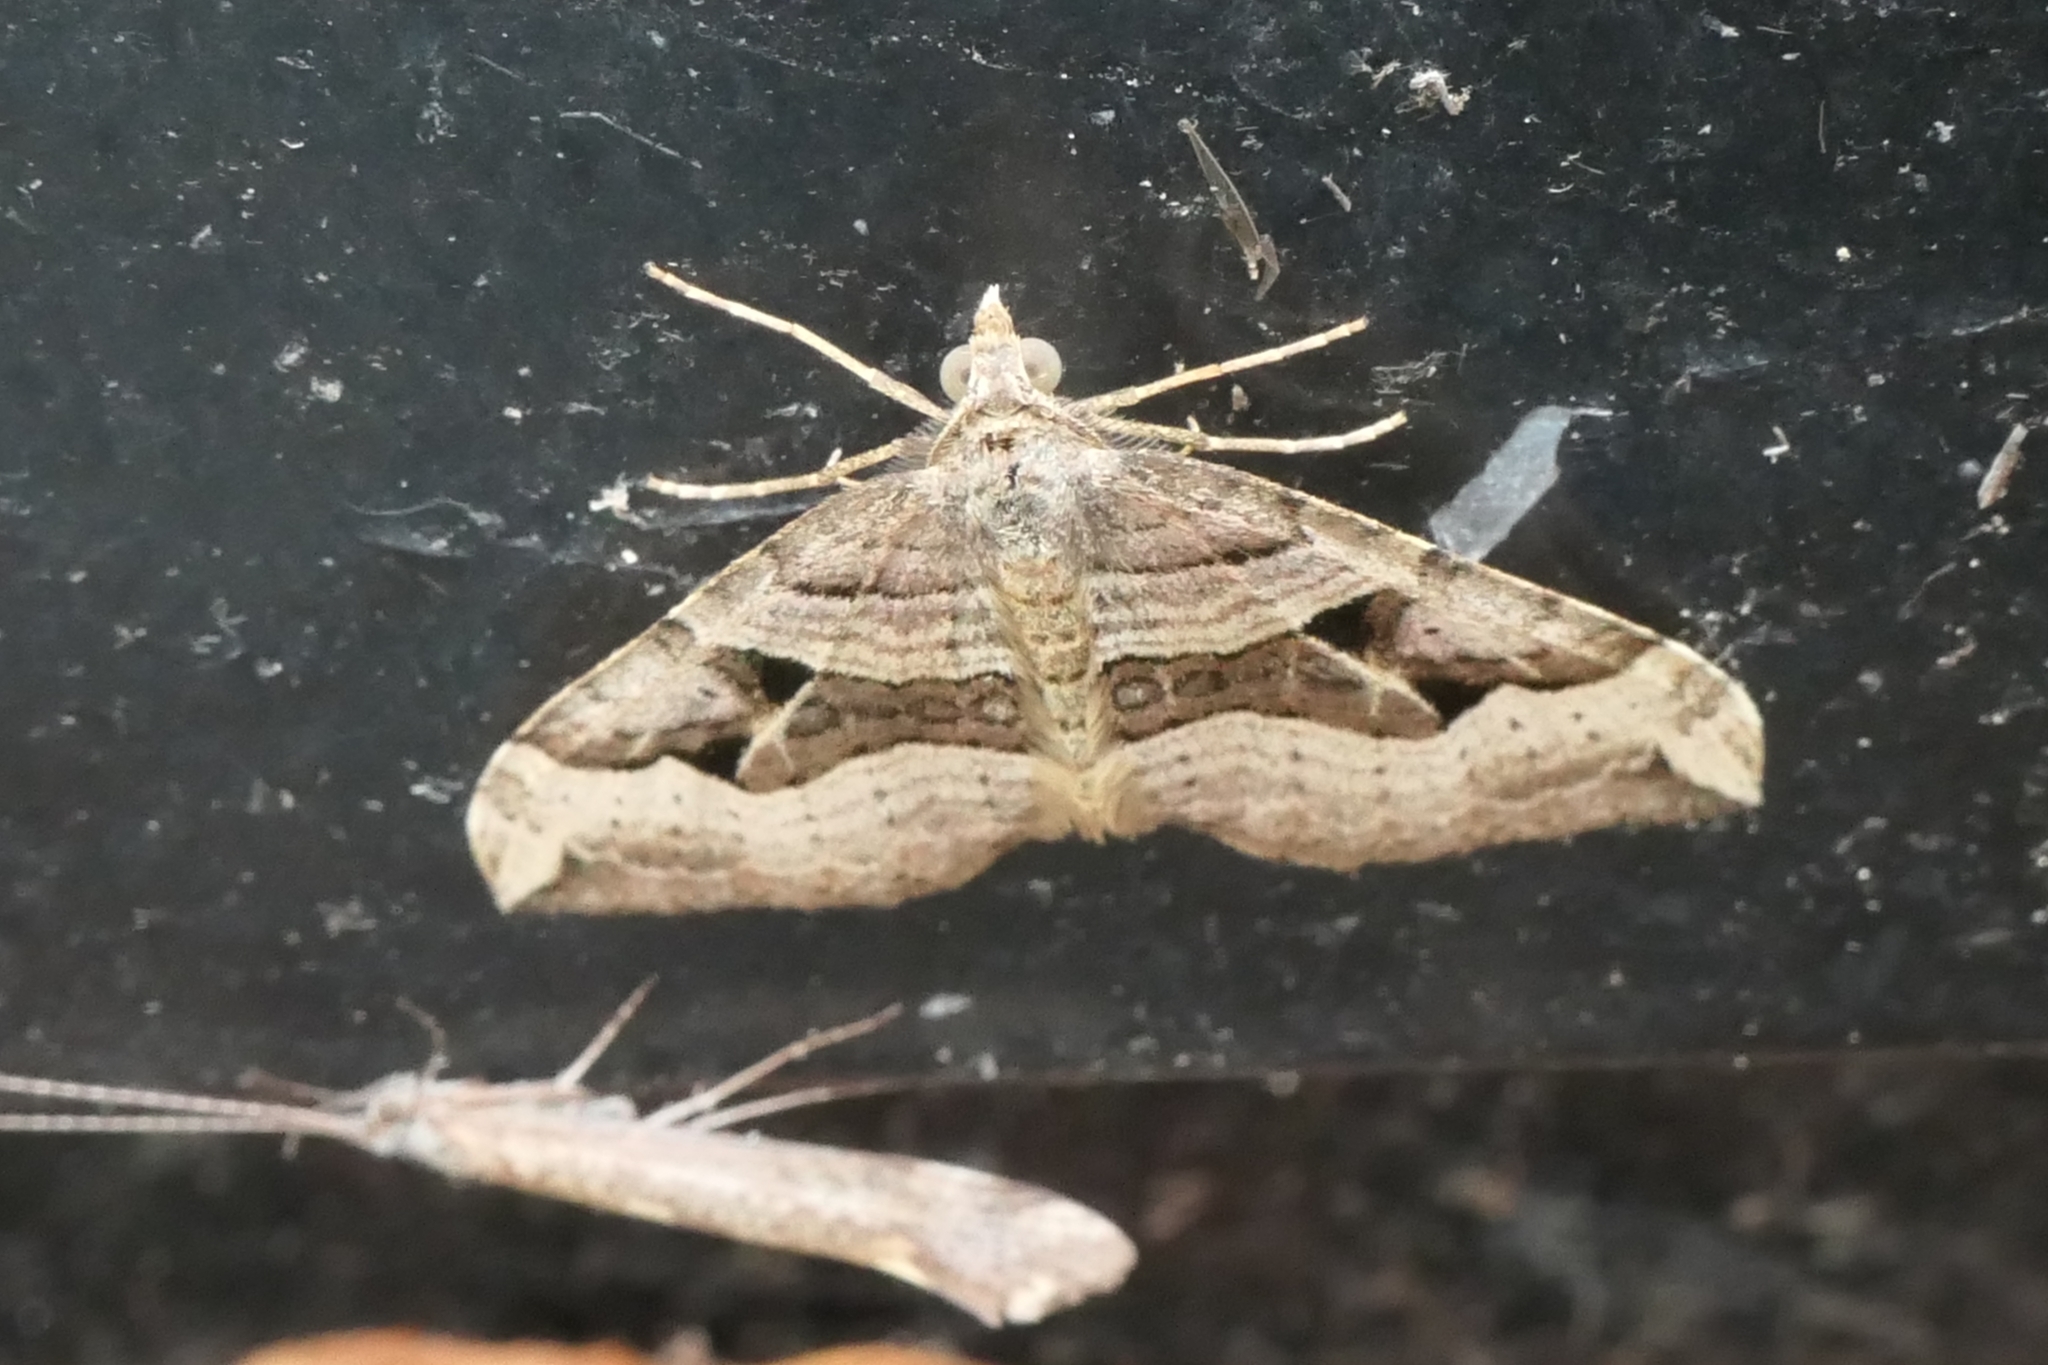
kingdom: Animalia
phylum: Arthropoda
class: Insecta
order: Lepidoptera
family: Geometridae
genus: Xanthorhoe
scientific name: Xanthorhoe semifissata
